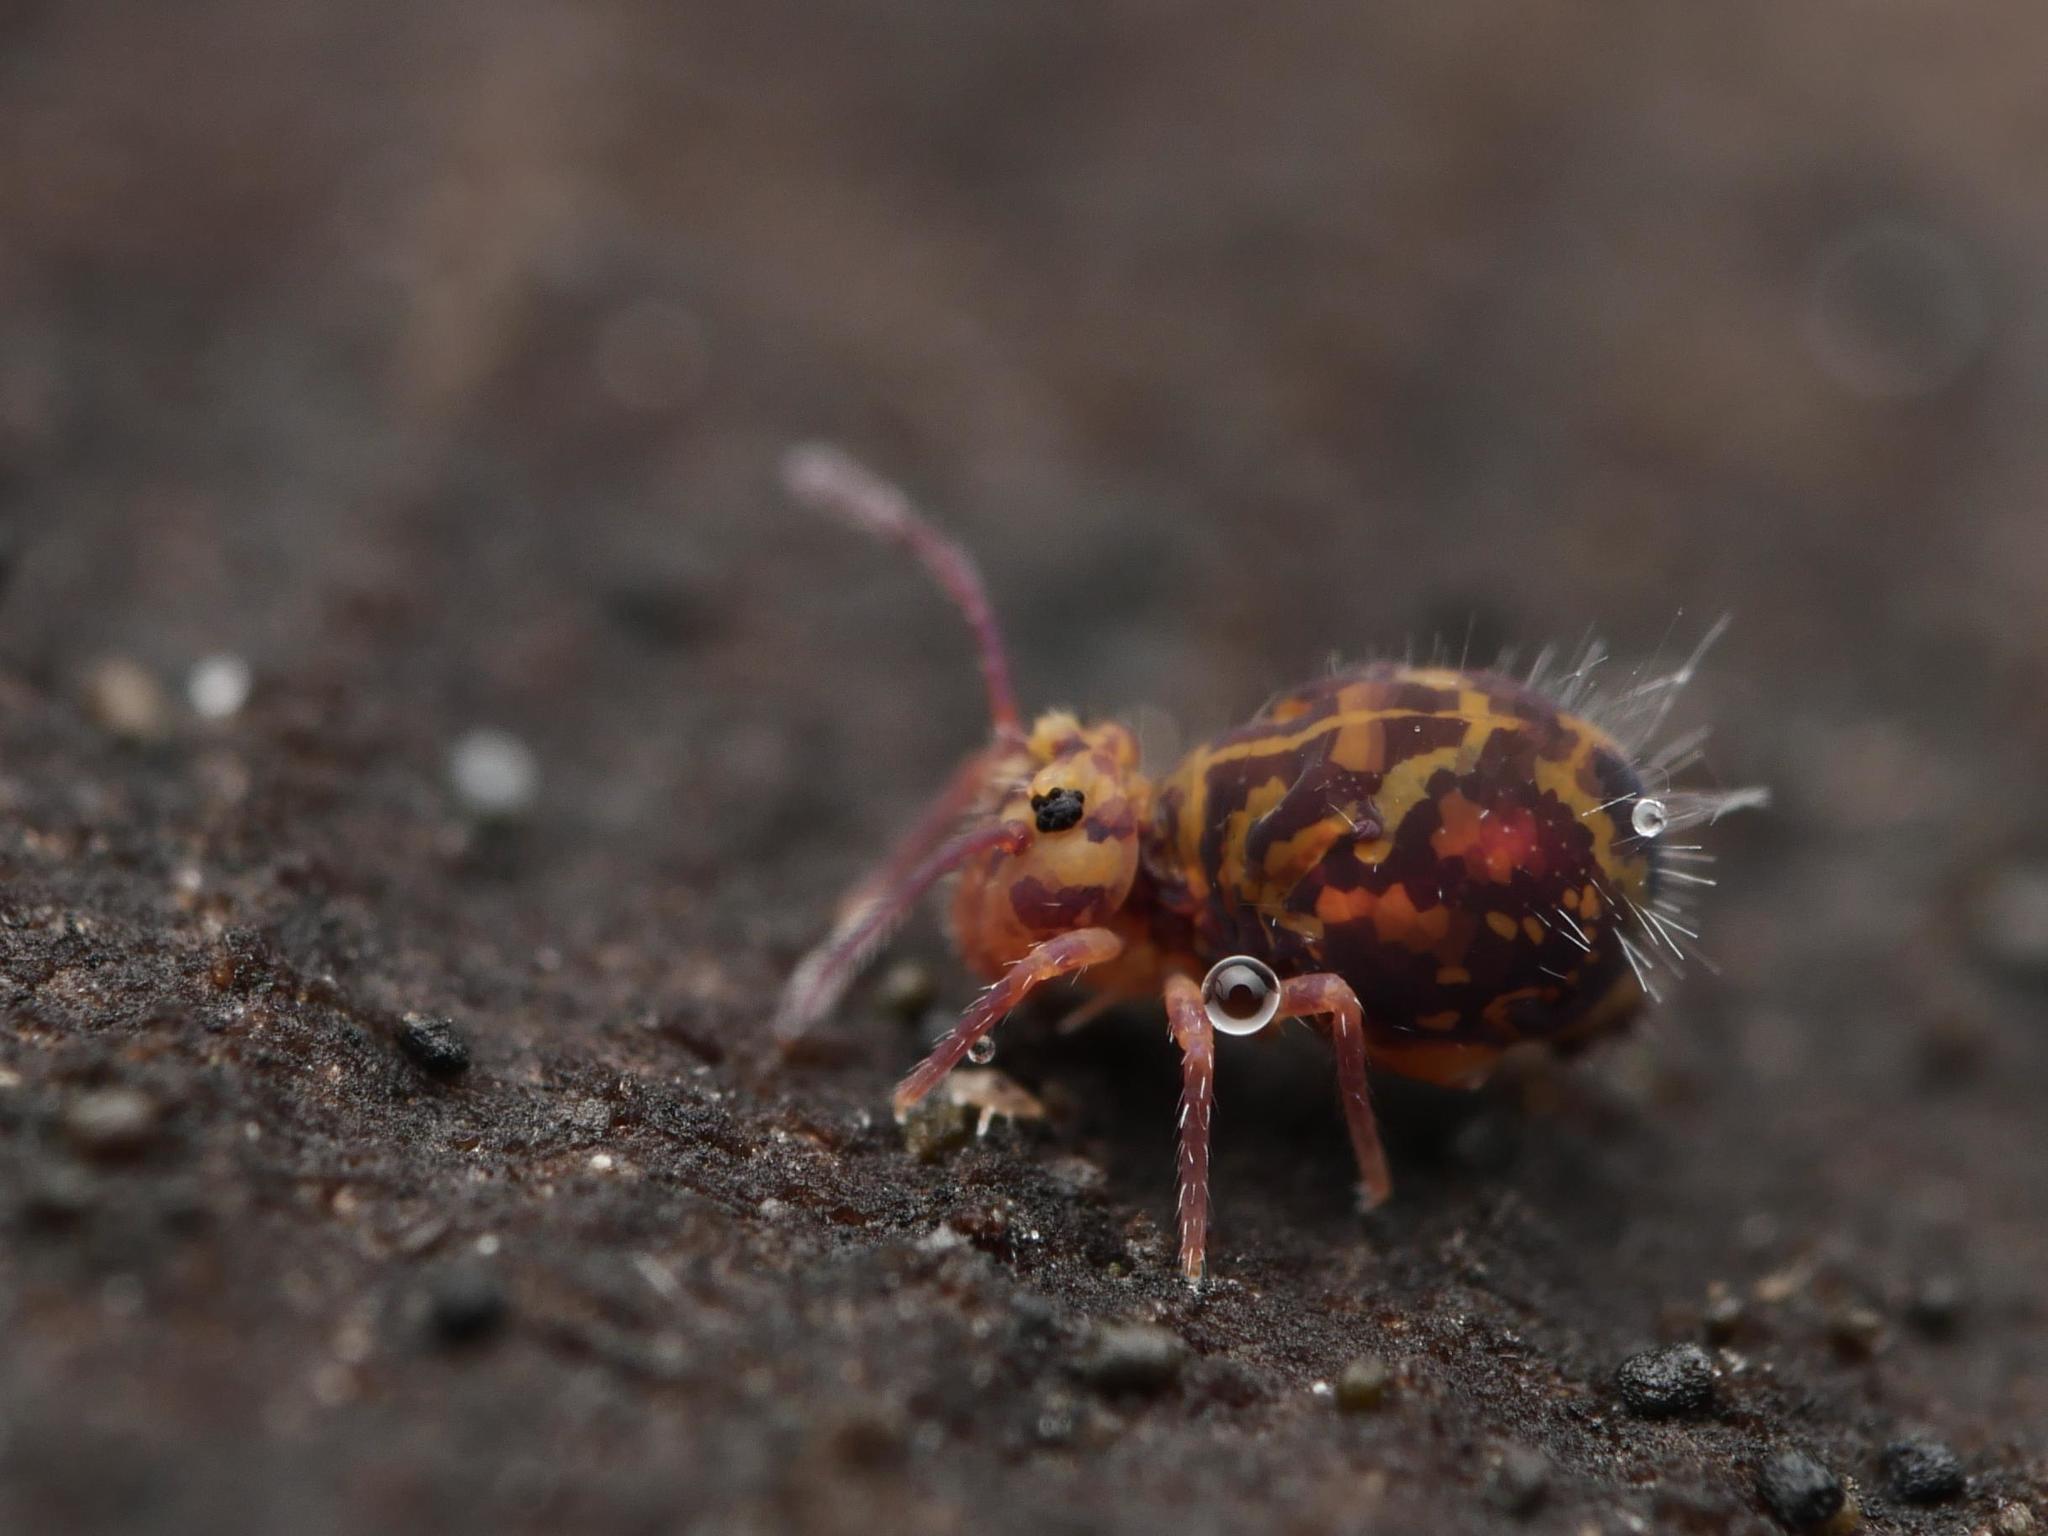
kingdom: Animalia
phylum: Arthropoda
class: Collembola
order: Symphypleona
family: Dicyrtomidae
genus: Dicyrtomina
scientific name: Dicyrtomina ornata
